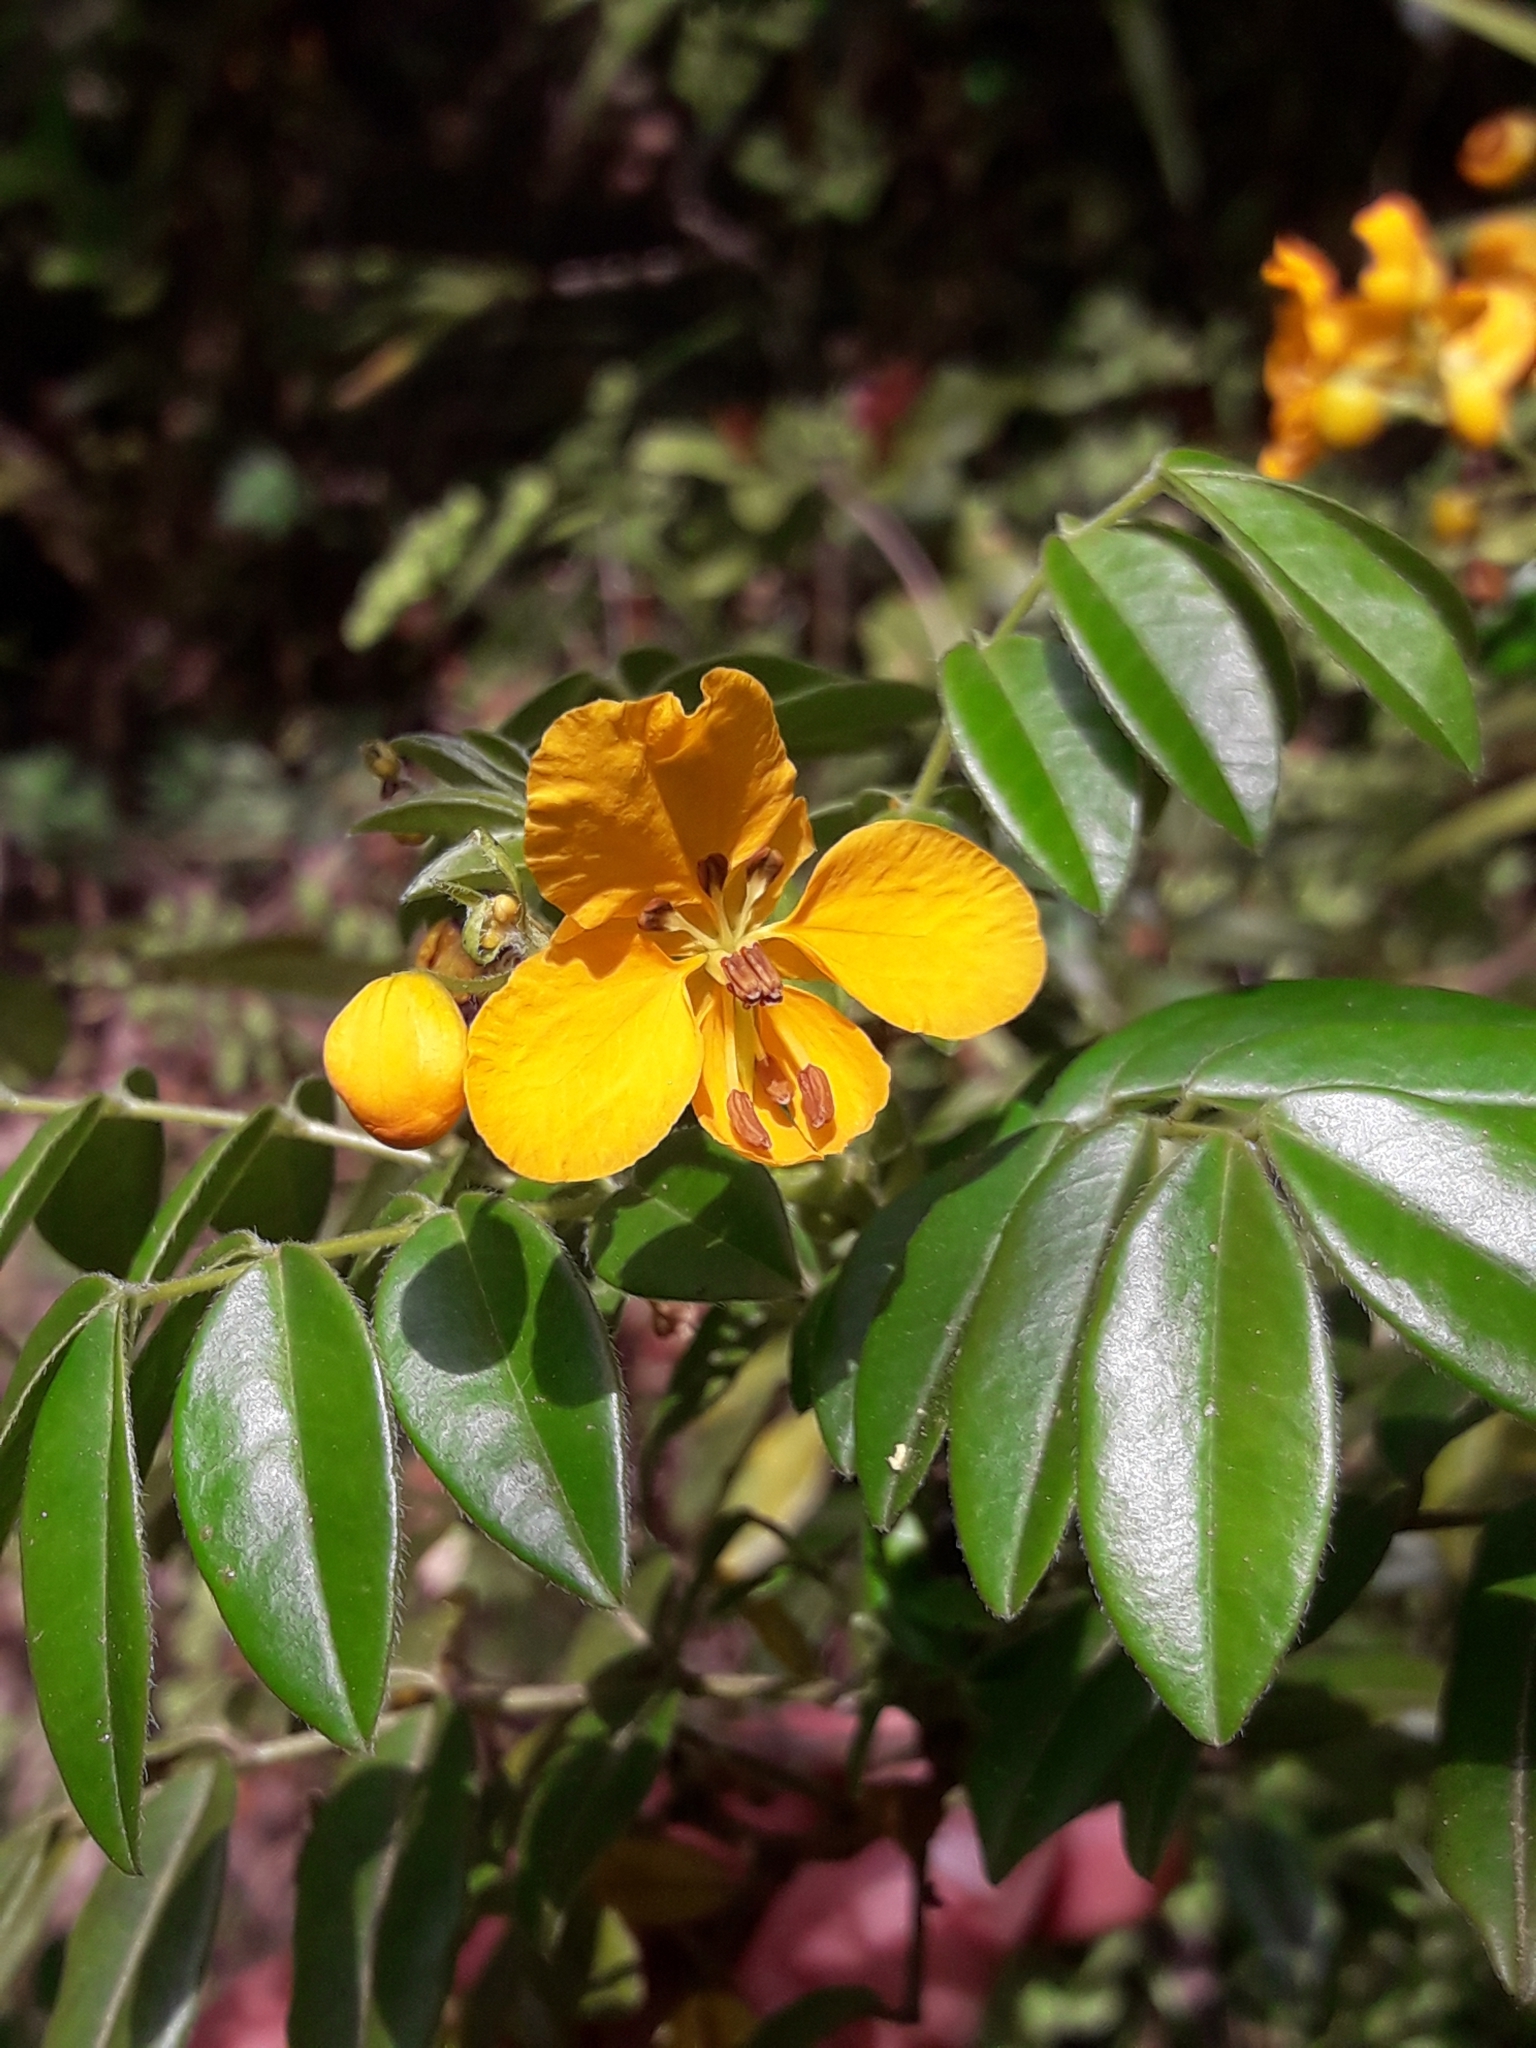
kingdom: Plantae
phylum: Tracheophyta
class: Magnoliopsida
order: Fabales
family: Fabaceae
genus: Senna
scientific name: Senna stipulacea
